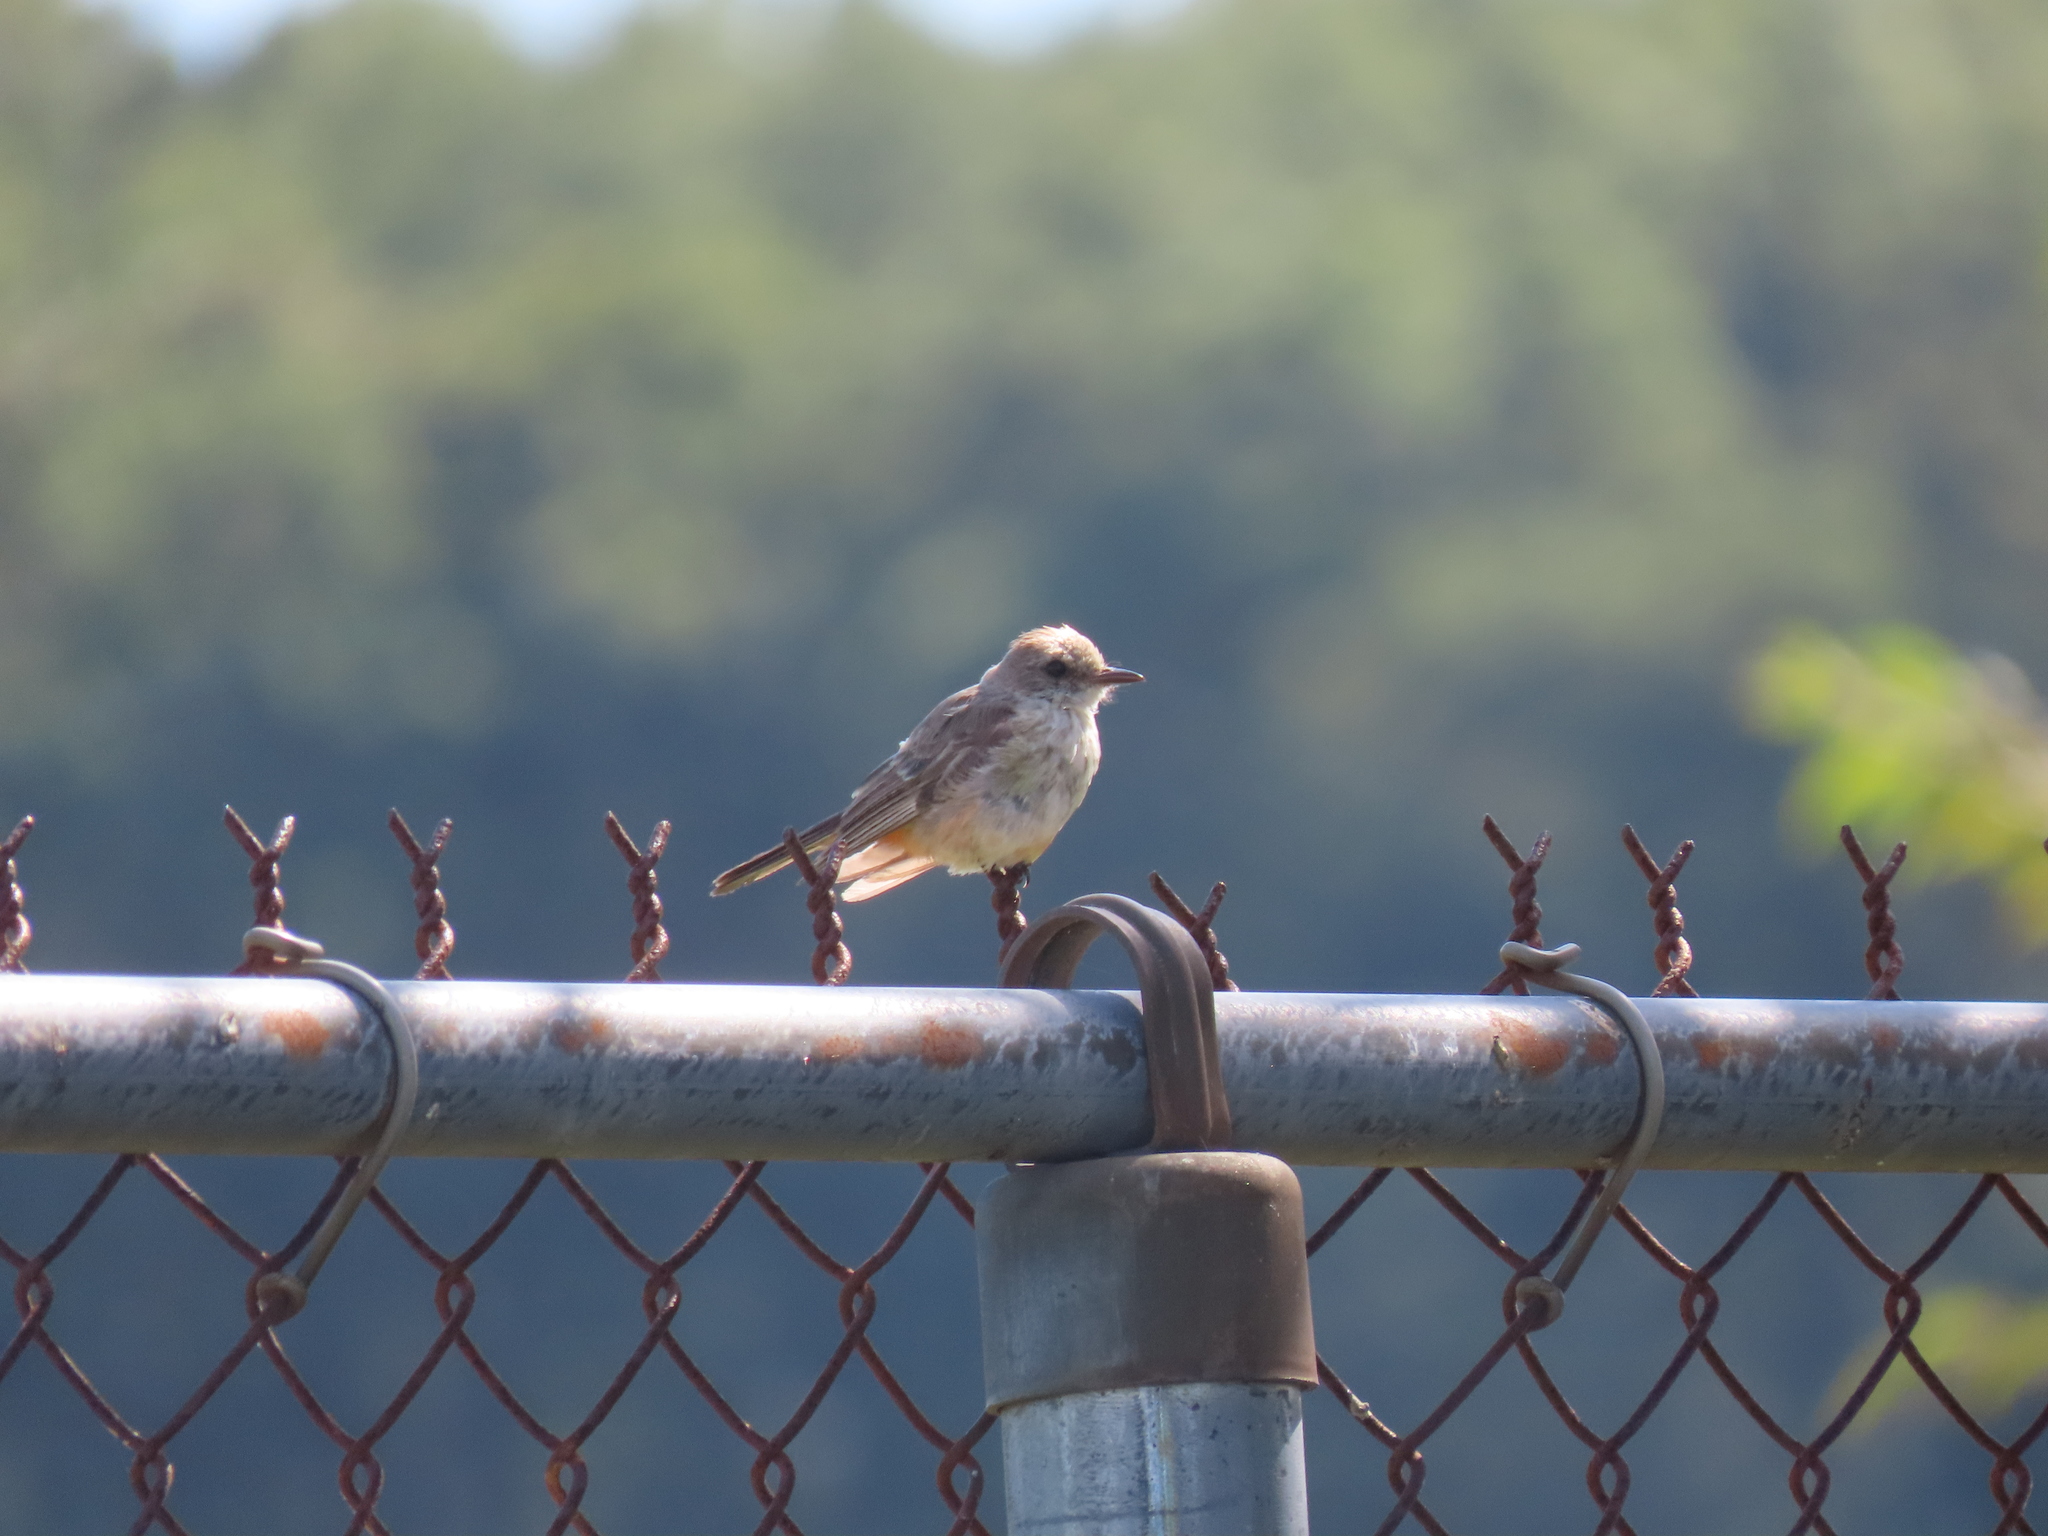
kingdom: Animalia
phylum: Chordata
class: Aves
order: Passeriformes
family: Tyrannidae
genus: Pyrocephalus
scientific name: Pyrocephalus rubinus
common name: Vermilion flycatcher
